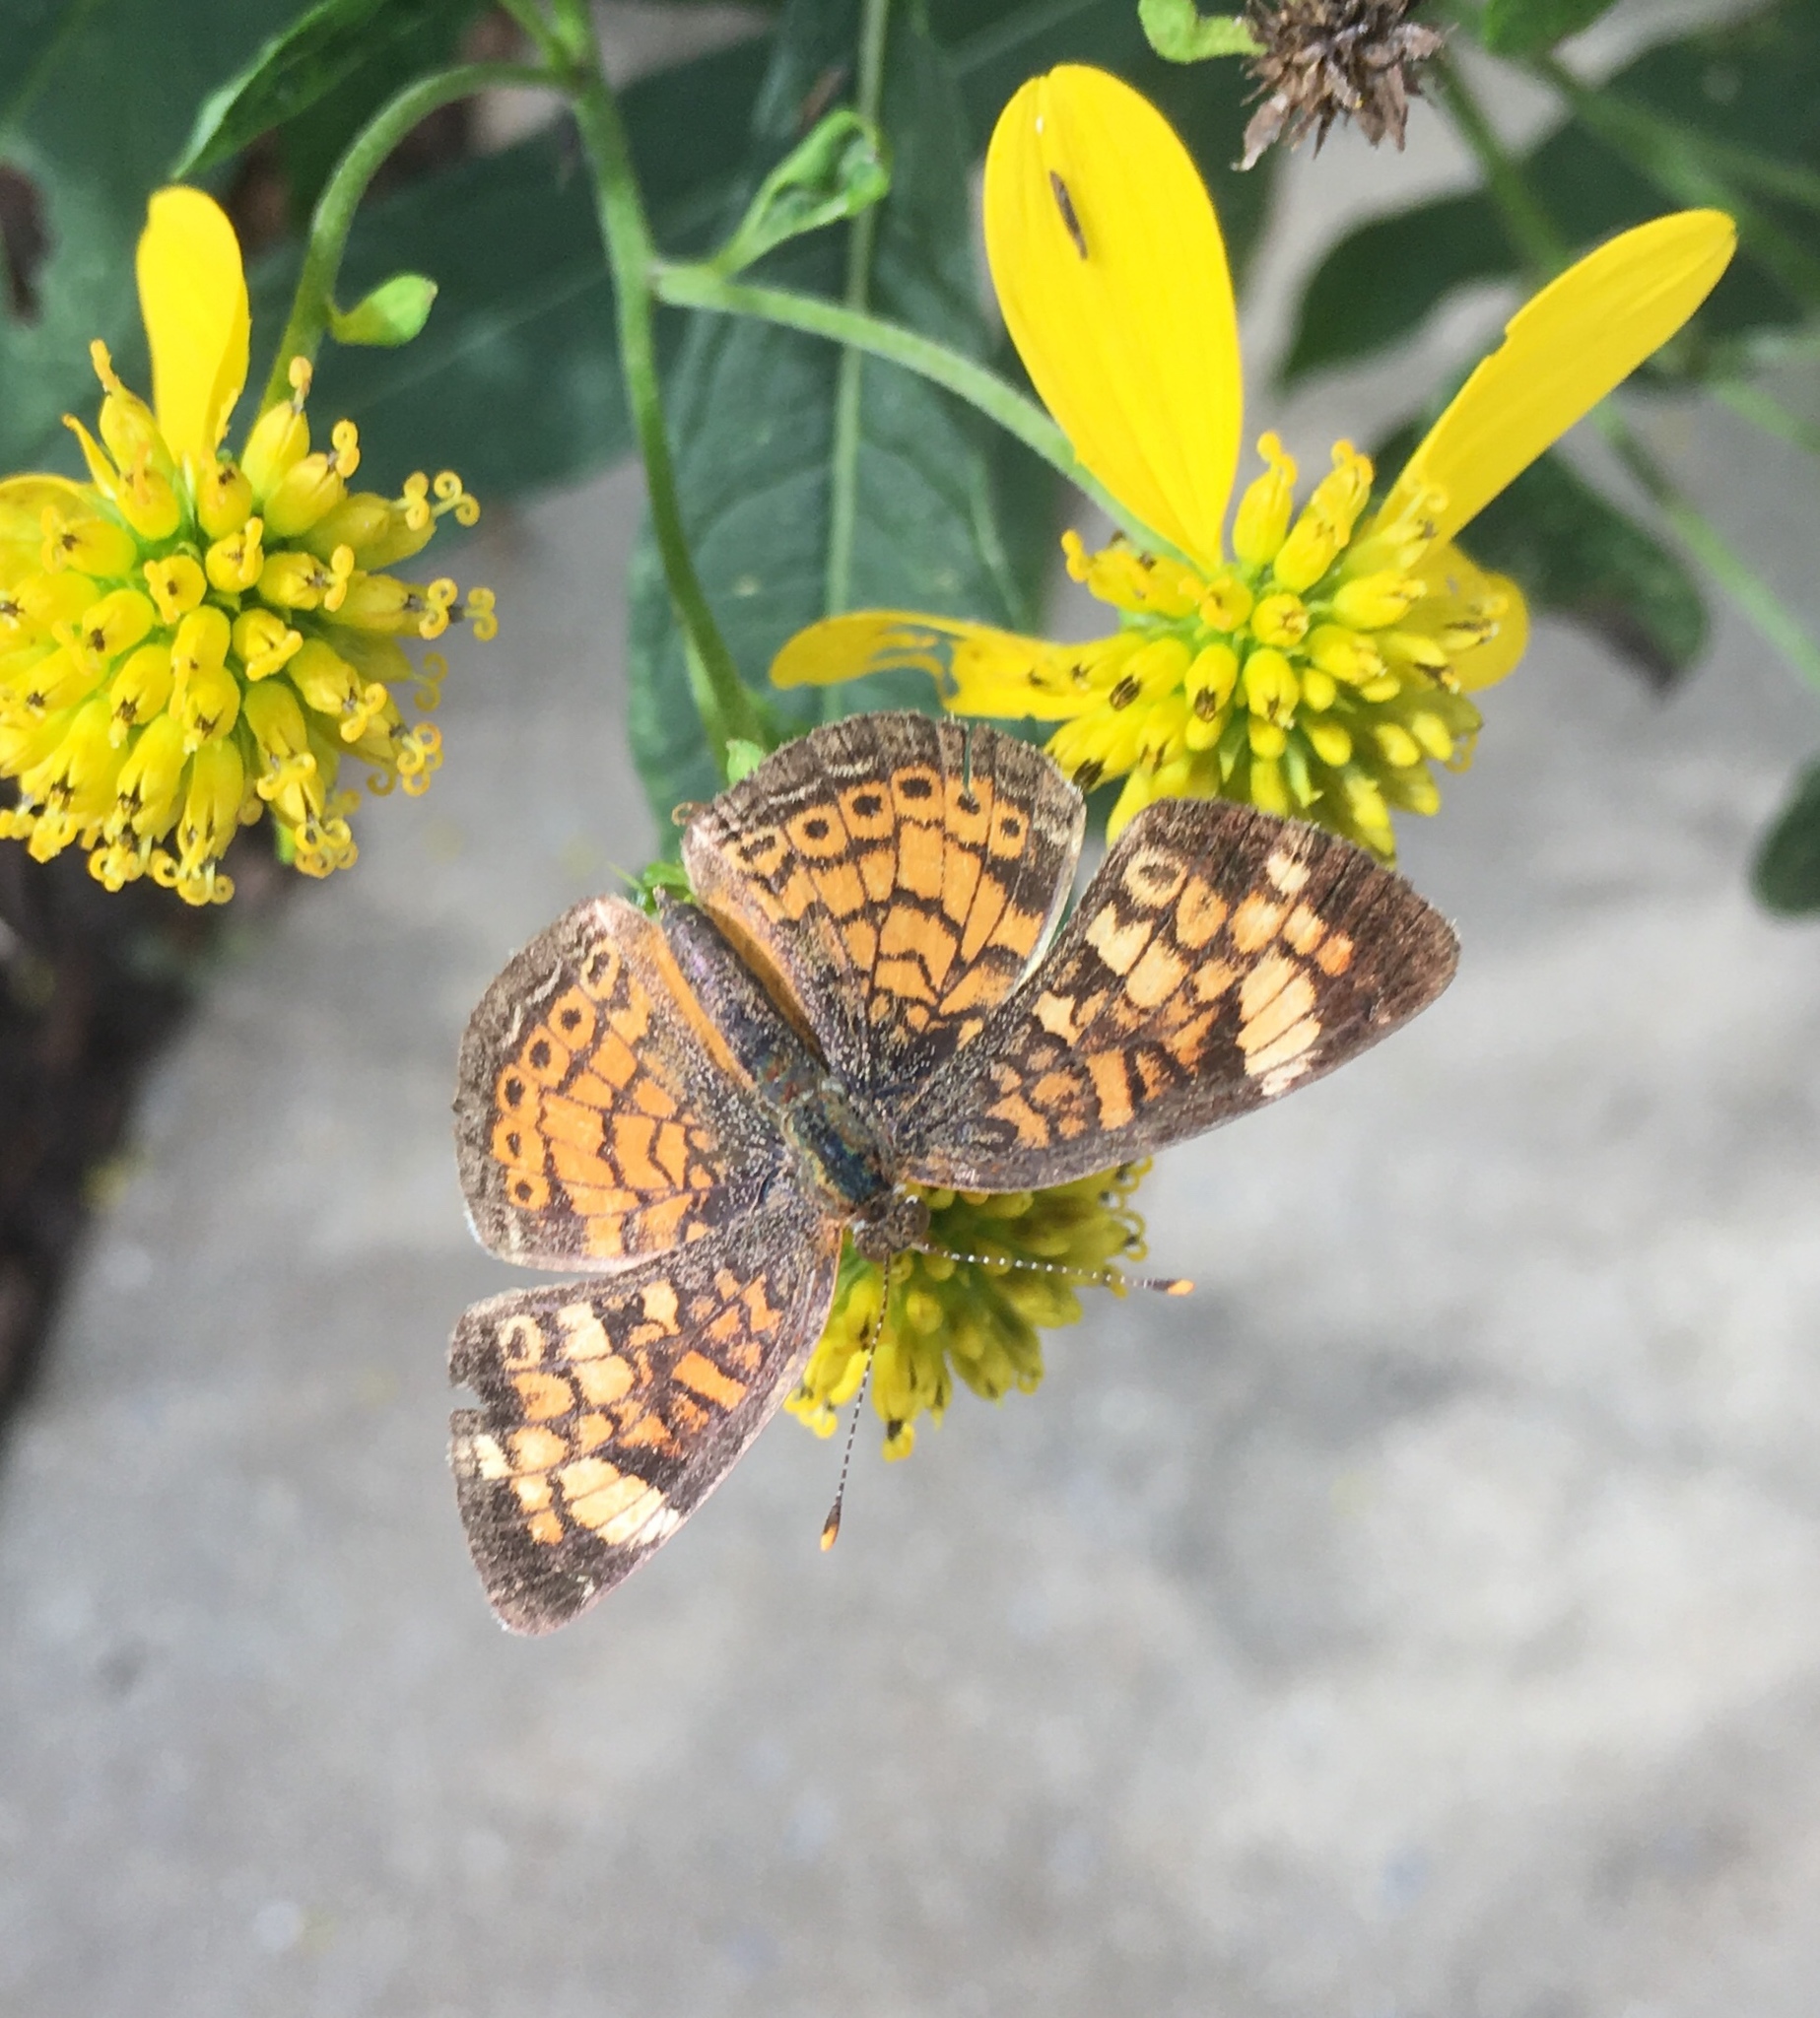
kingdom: Animalia
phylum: Arthropoda
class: Insecta
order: Lepidoptera
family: Nymphalidae
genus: Phyciodes
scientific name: Phyciodes tharos
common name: Pearl crescent
